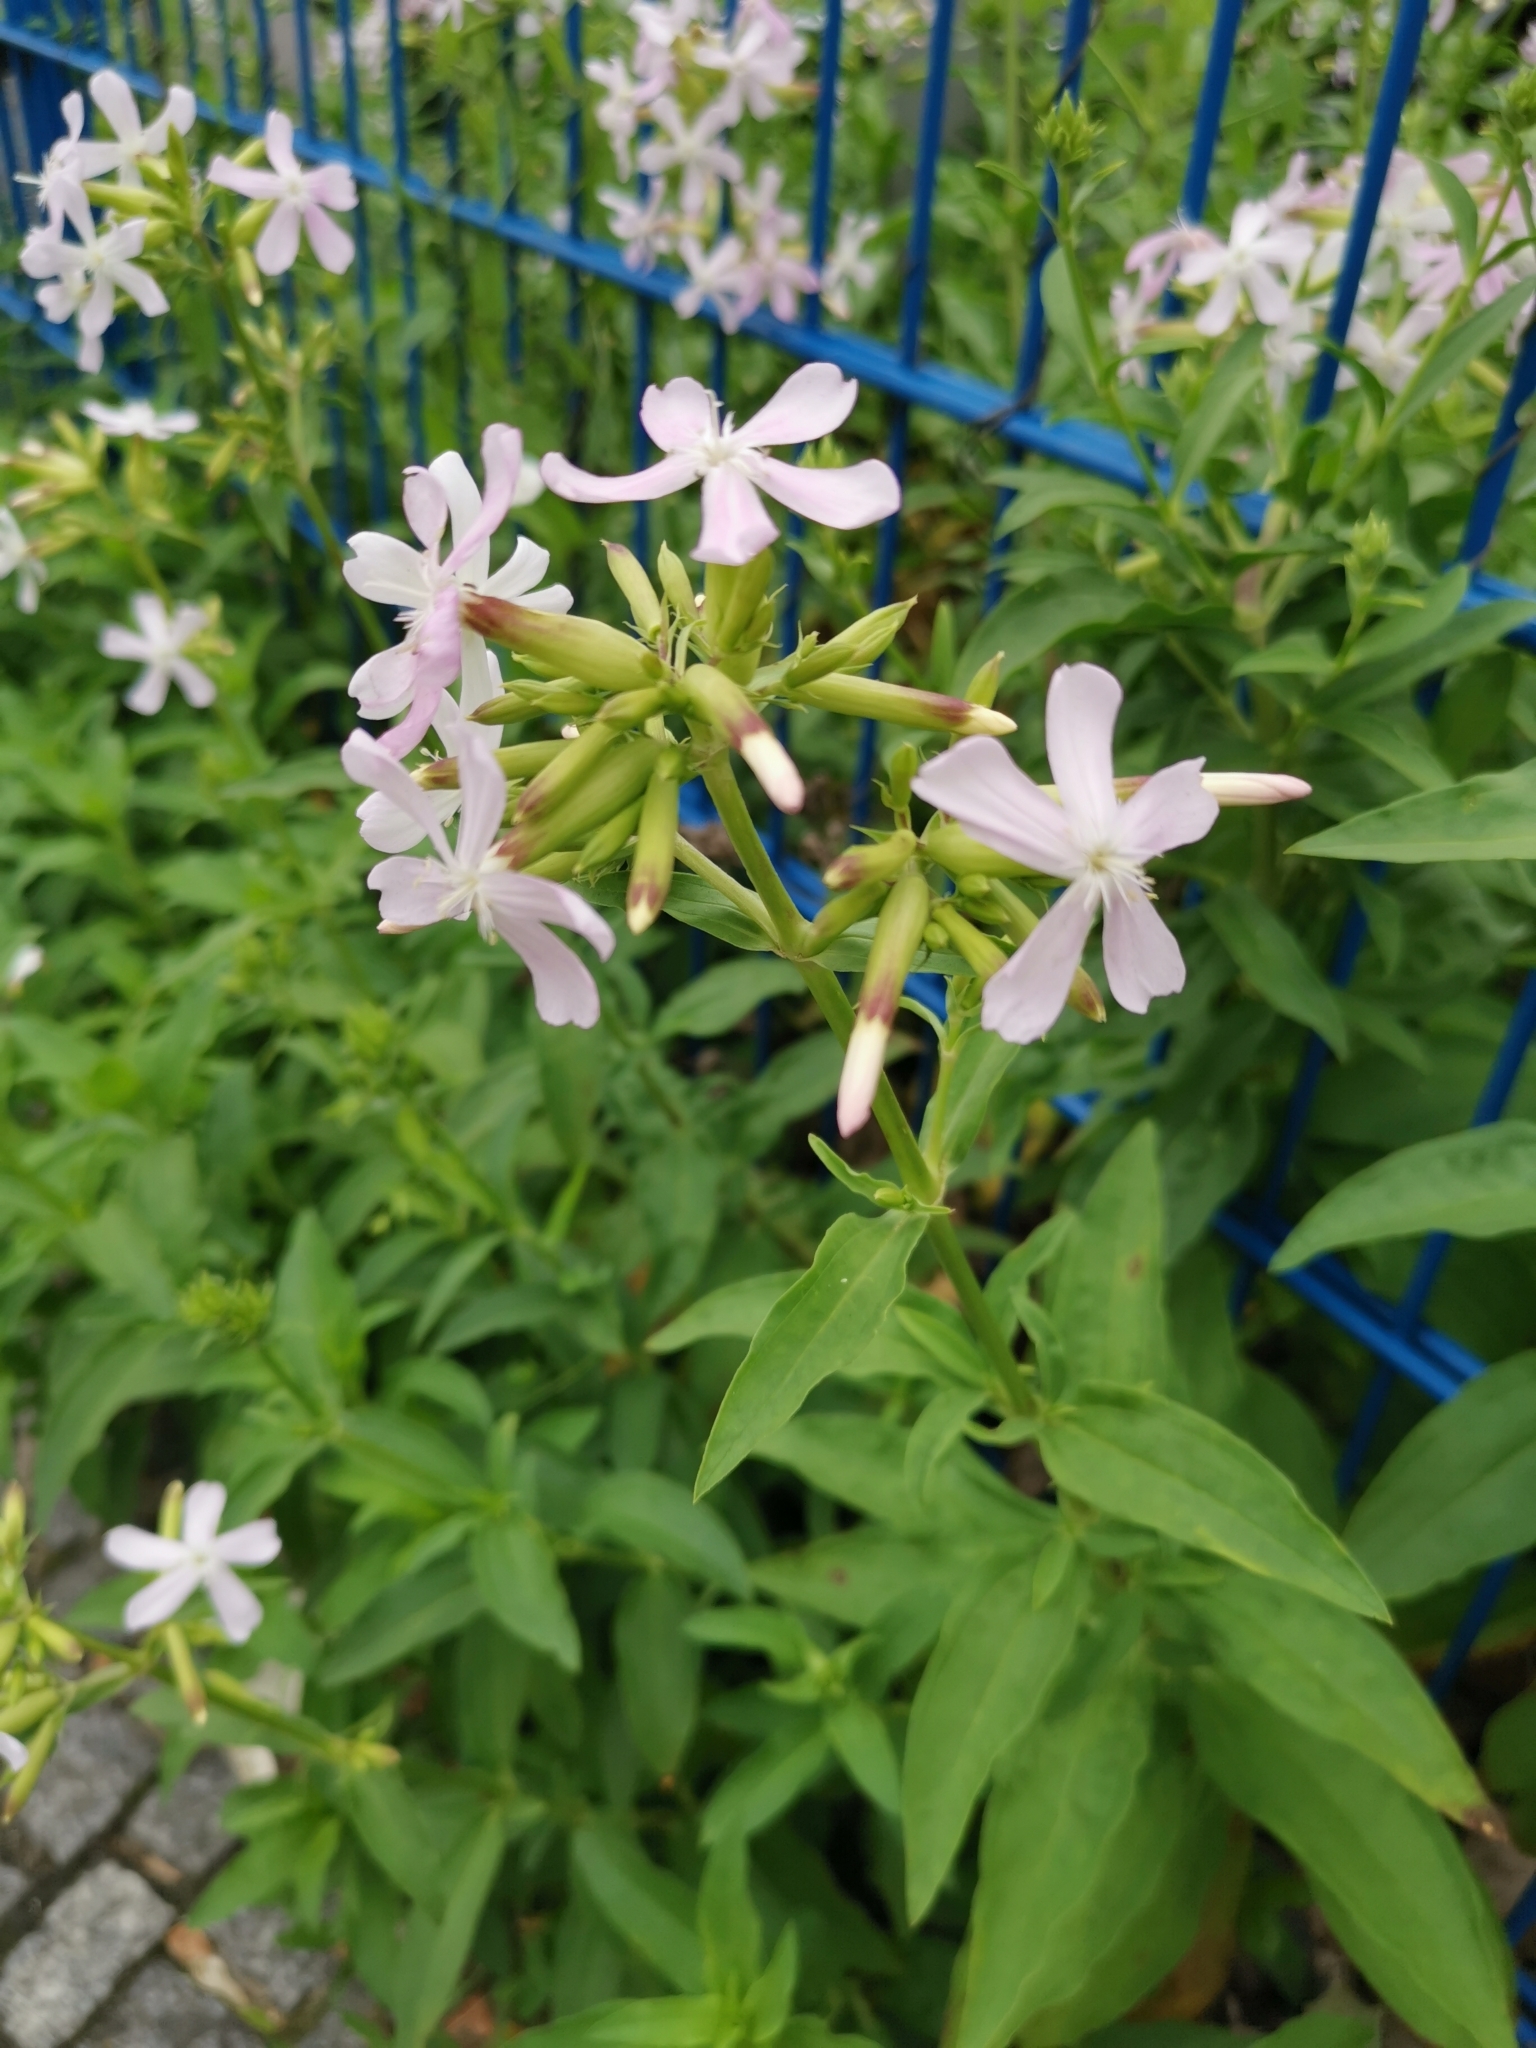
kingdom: Plantae
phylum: Tracheophyta
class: Magnoliopsida
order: Caryophyllales
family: Caryophyllaceae
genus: Saponaria
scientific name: Saponaria officinalis
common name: Soapwort
